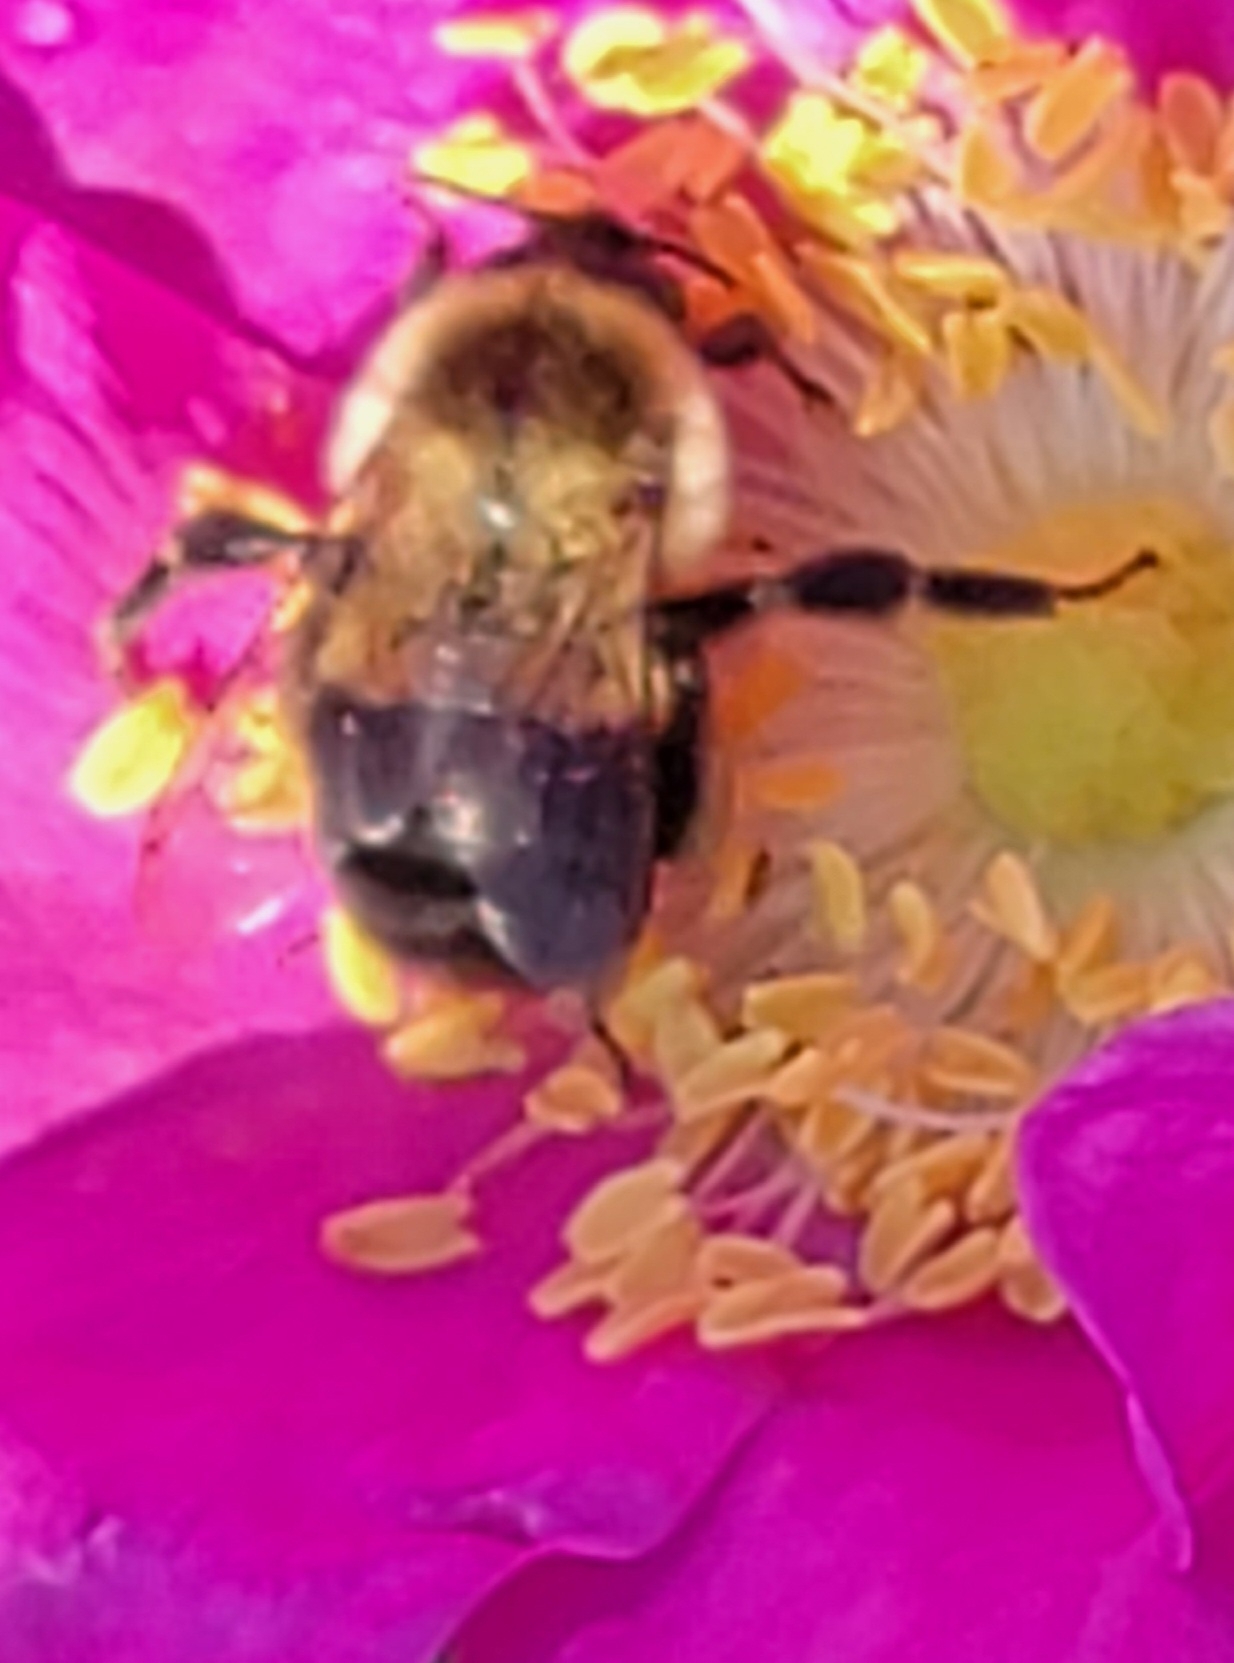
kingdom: Animalia
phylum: Arthropoda
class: Insecta
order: Hymenoptera
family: Apidae
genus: Bombus
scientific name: Bombus impatiens
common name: Common eastern bumble bee
